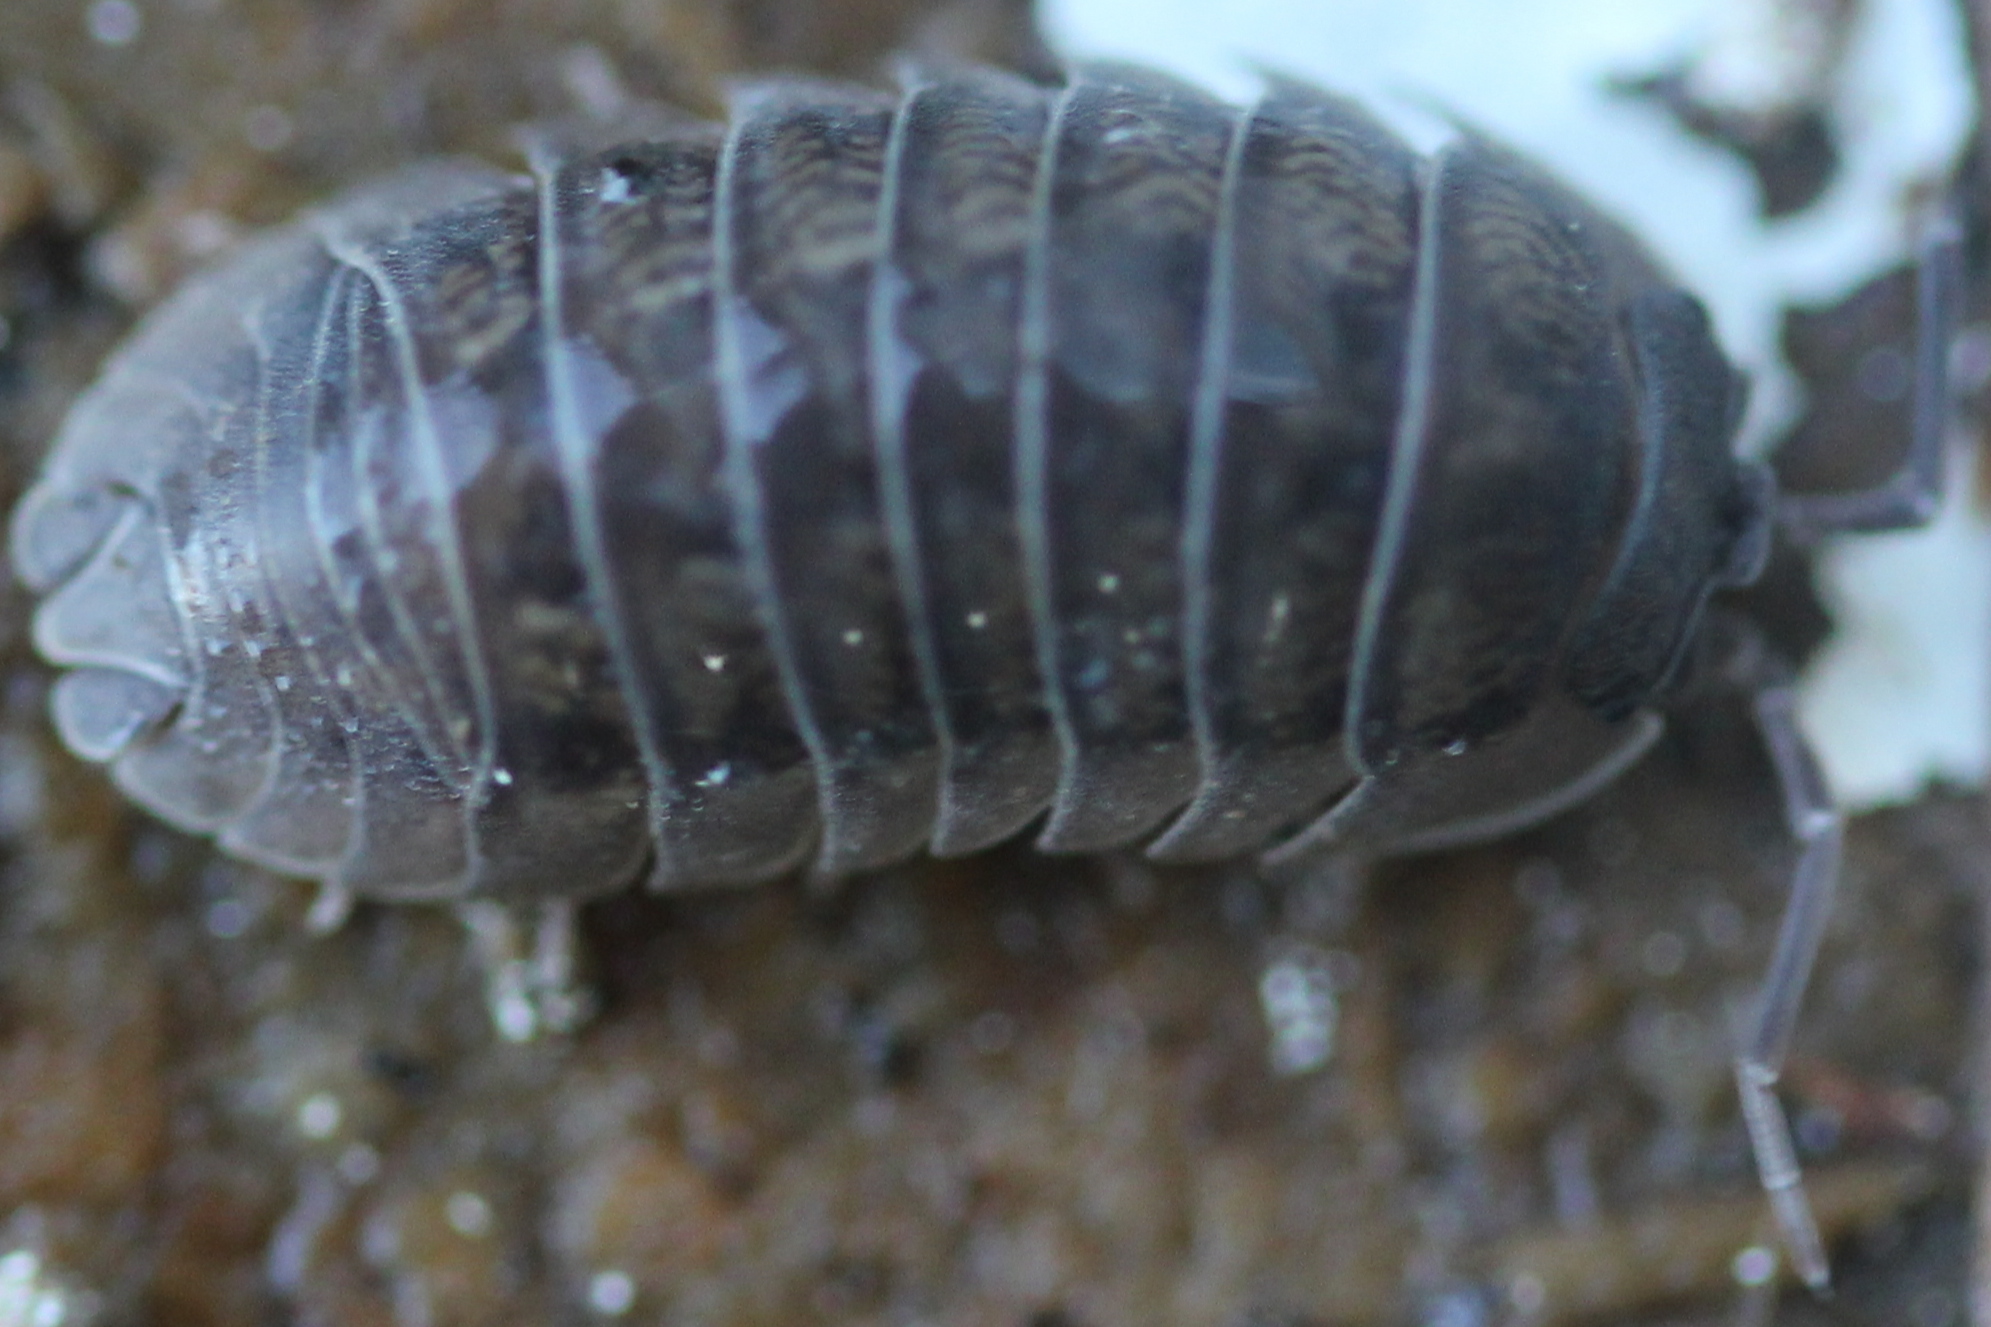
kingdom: Animalia
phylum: Arthropoda
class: Malacostraca
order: Isopoda
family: Armadillidiidae
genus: Armadillidium
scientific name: Armadillidium nasatum
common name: Isopod
